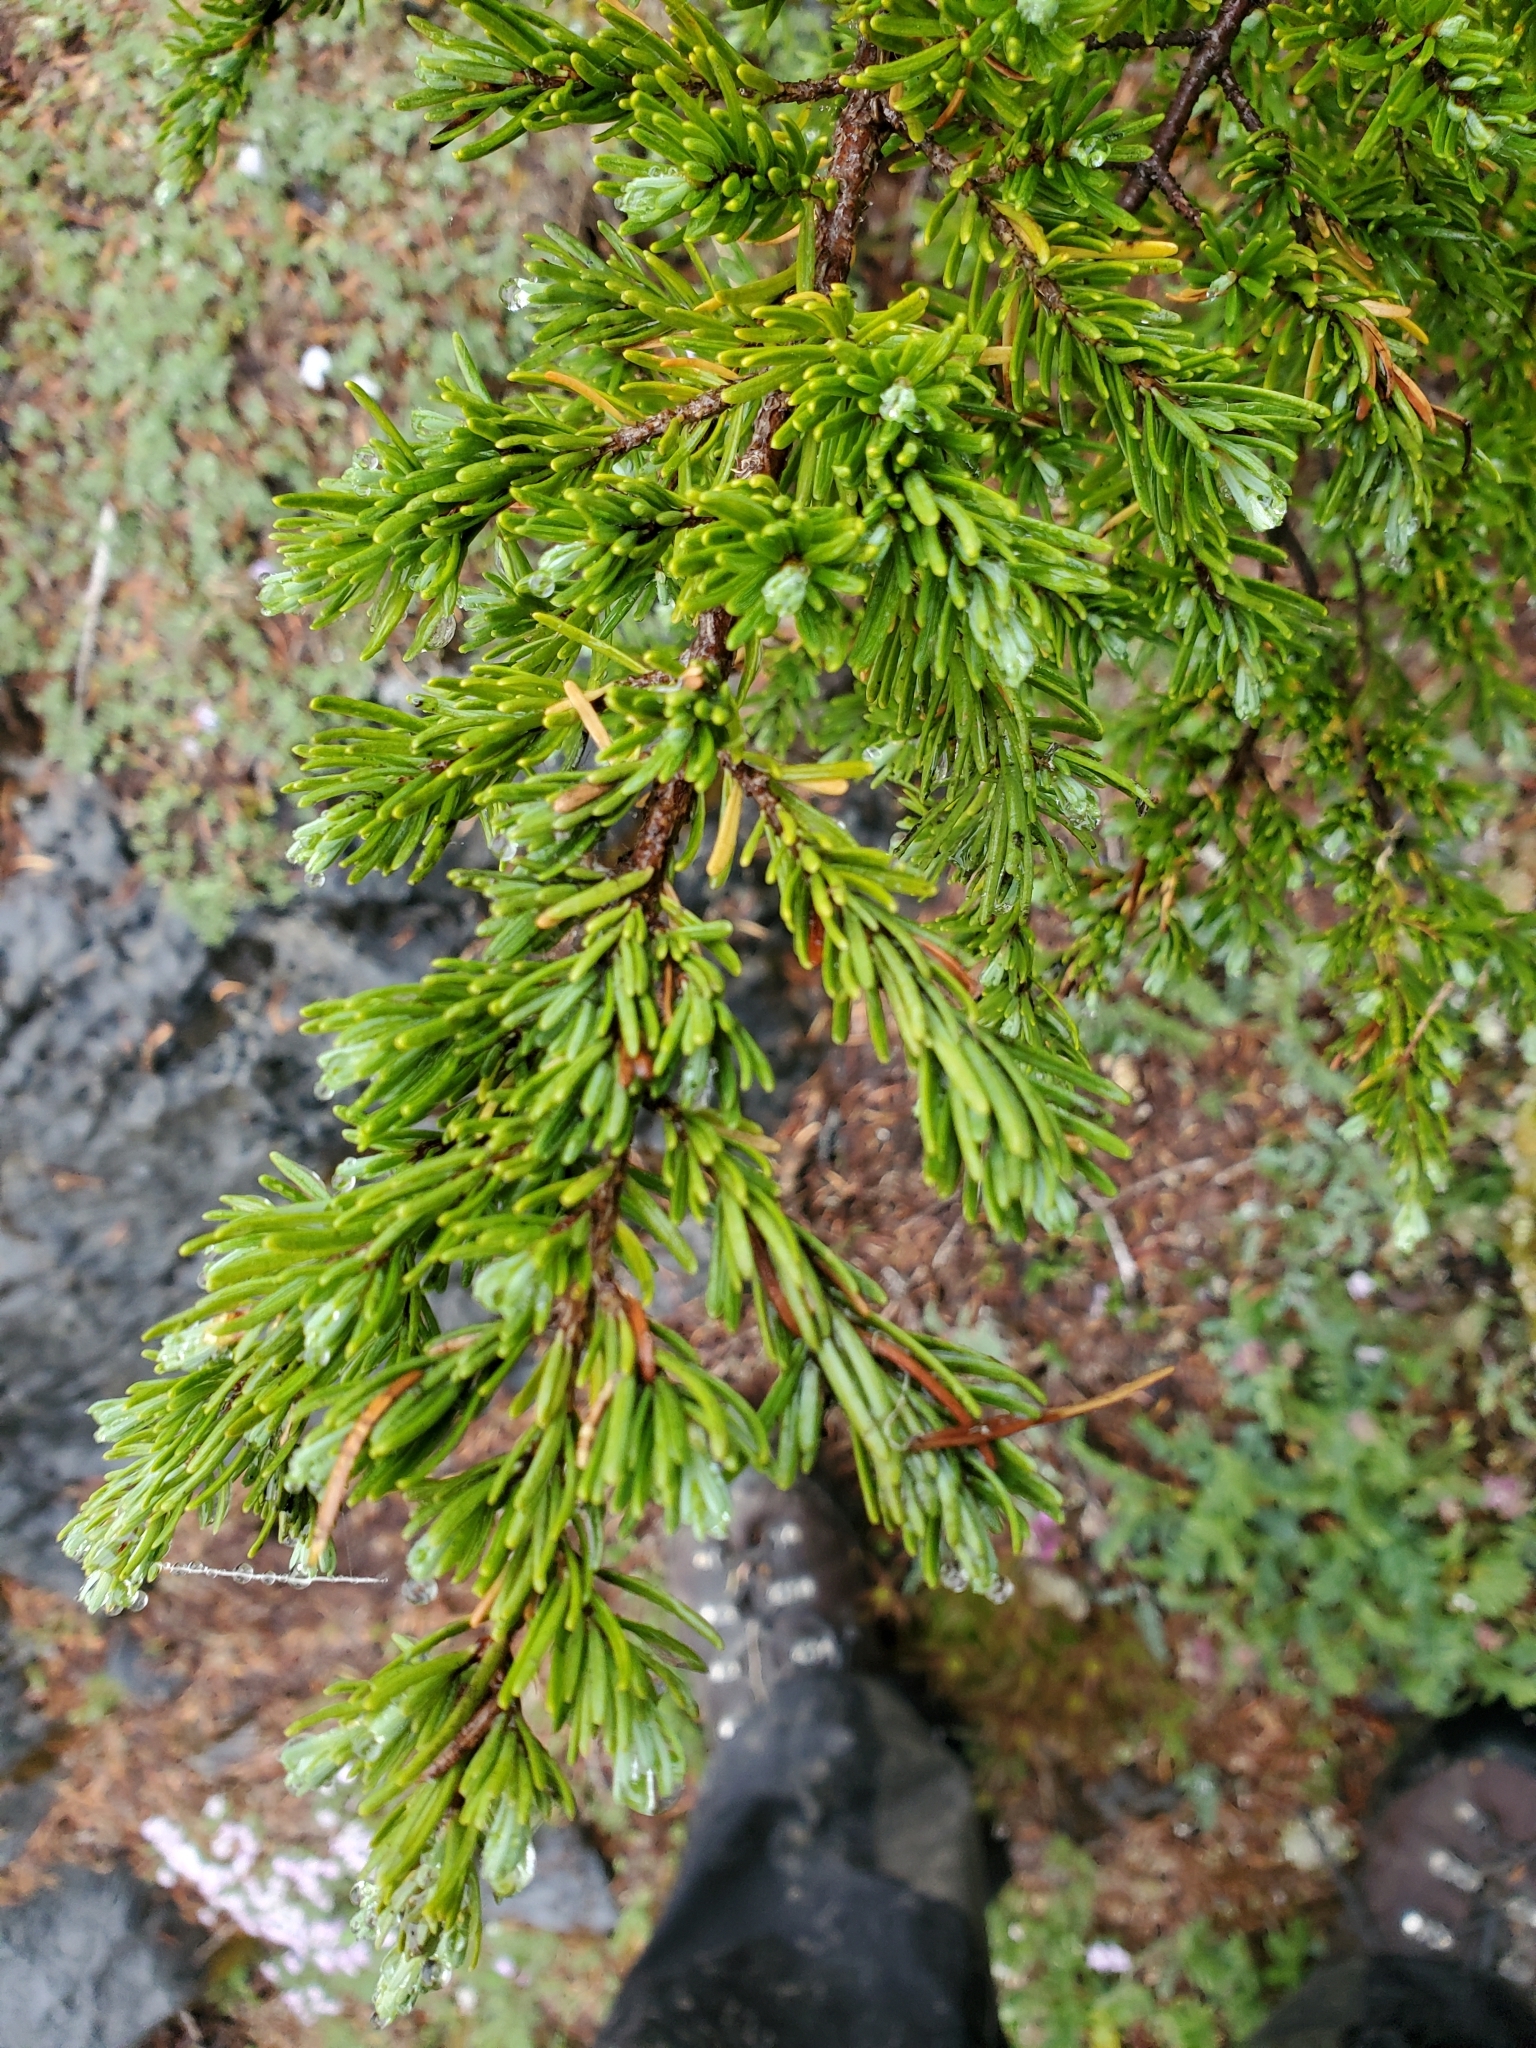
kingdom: Plantae
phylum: Tracheophyta
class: Pinopsida
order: Pinales
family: Pinaceae
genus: Tsuga
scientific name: Tsuga mertensiana
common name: Mountain hemlock
